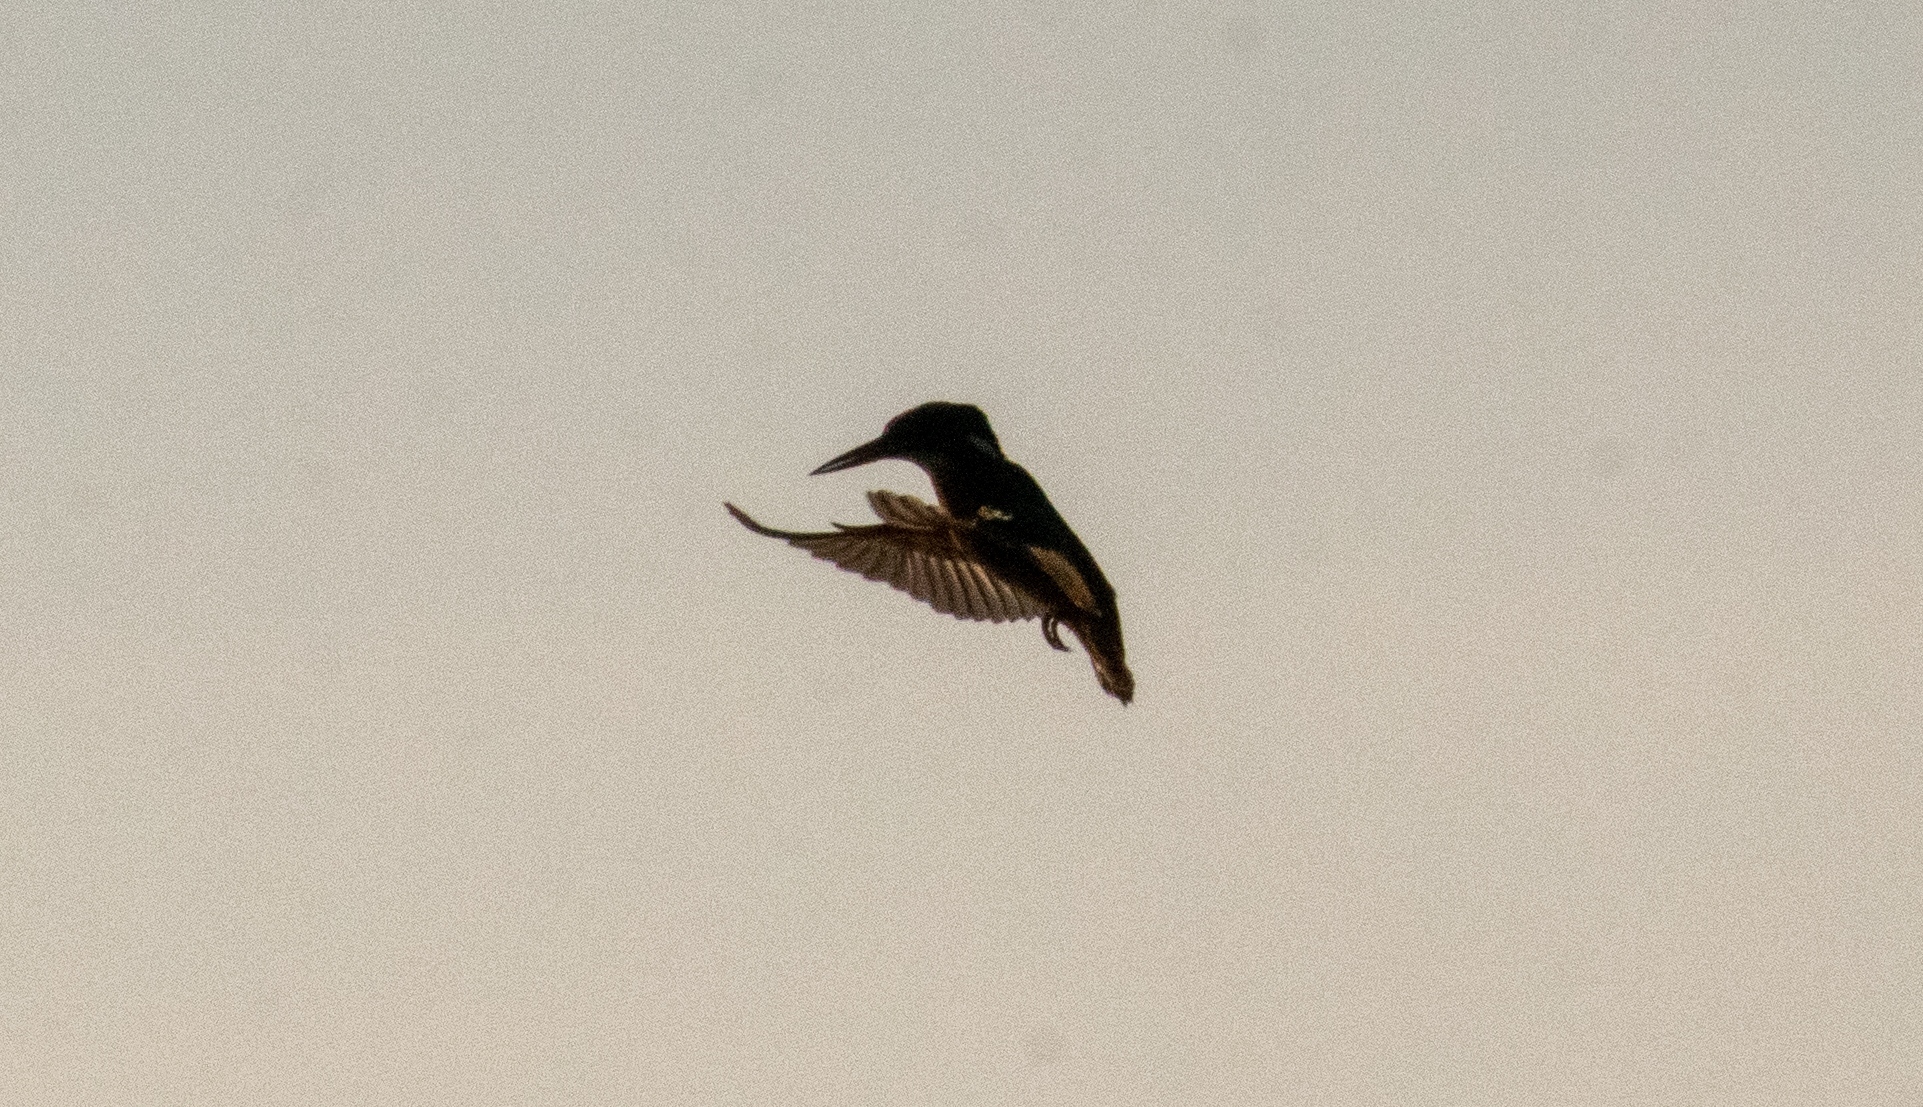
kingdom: Animalia
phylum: Chordata
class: Aves
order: Coraciiformes
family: Alcedinidae
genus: Alcedo
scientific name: Alcedo atthis
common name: Common kingfisher
